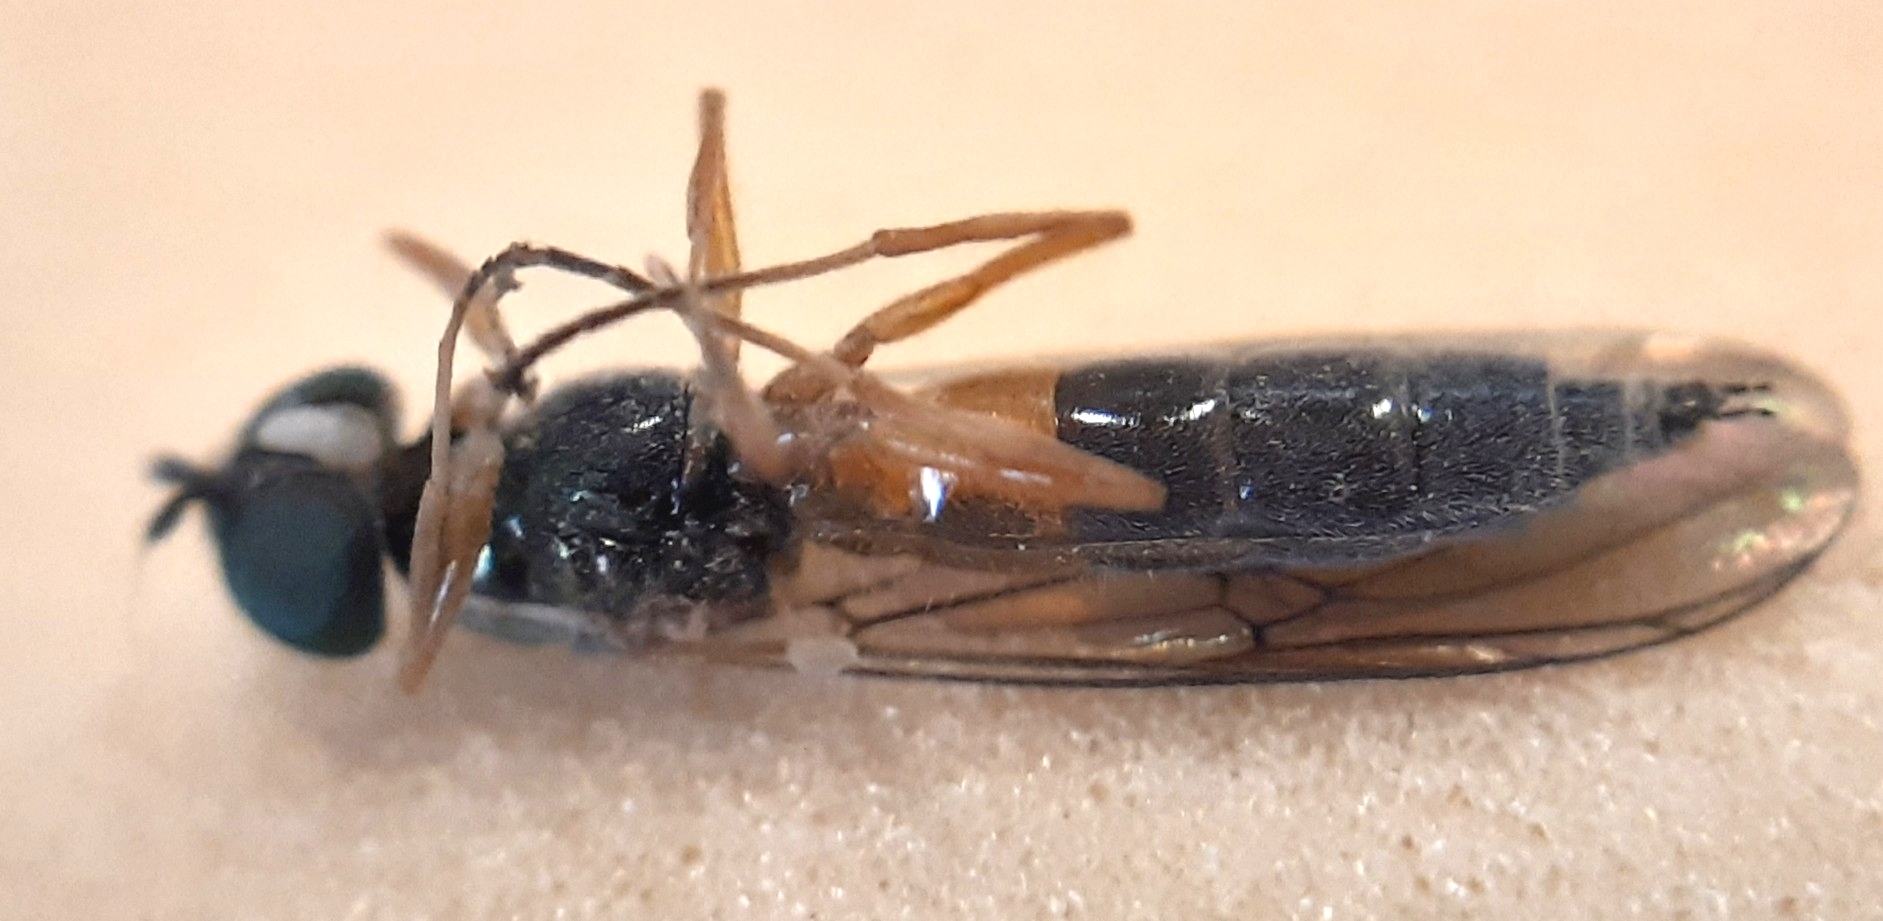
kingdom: Animalia
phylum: Arthropoda
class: Insecta
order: Diptera
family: Stratiomyidae
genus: Sargus
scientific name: Sargus bipunctatus
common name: Twin-spot centurion
